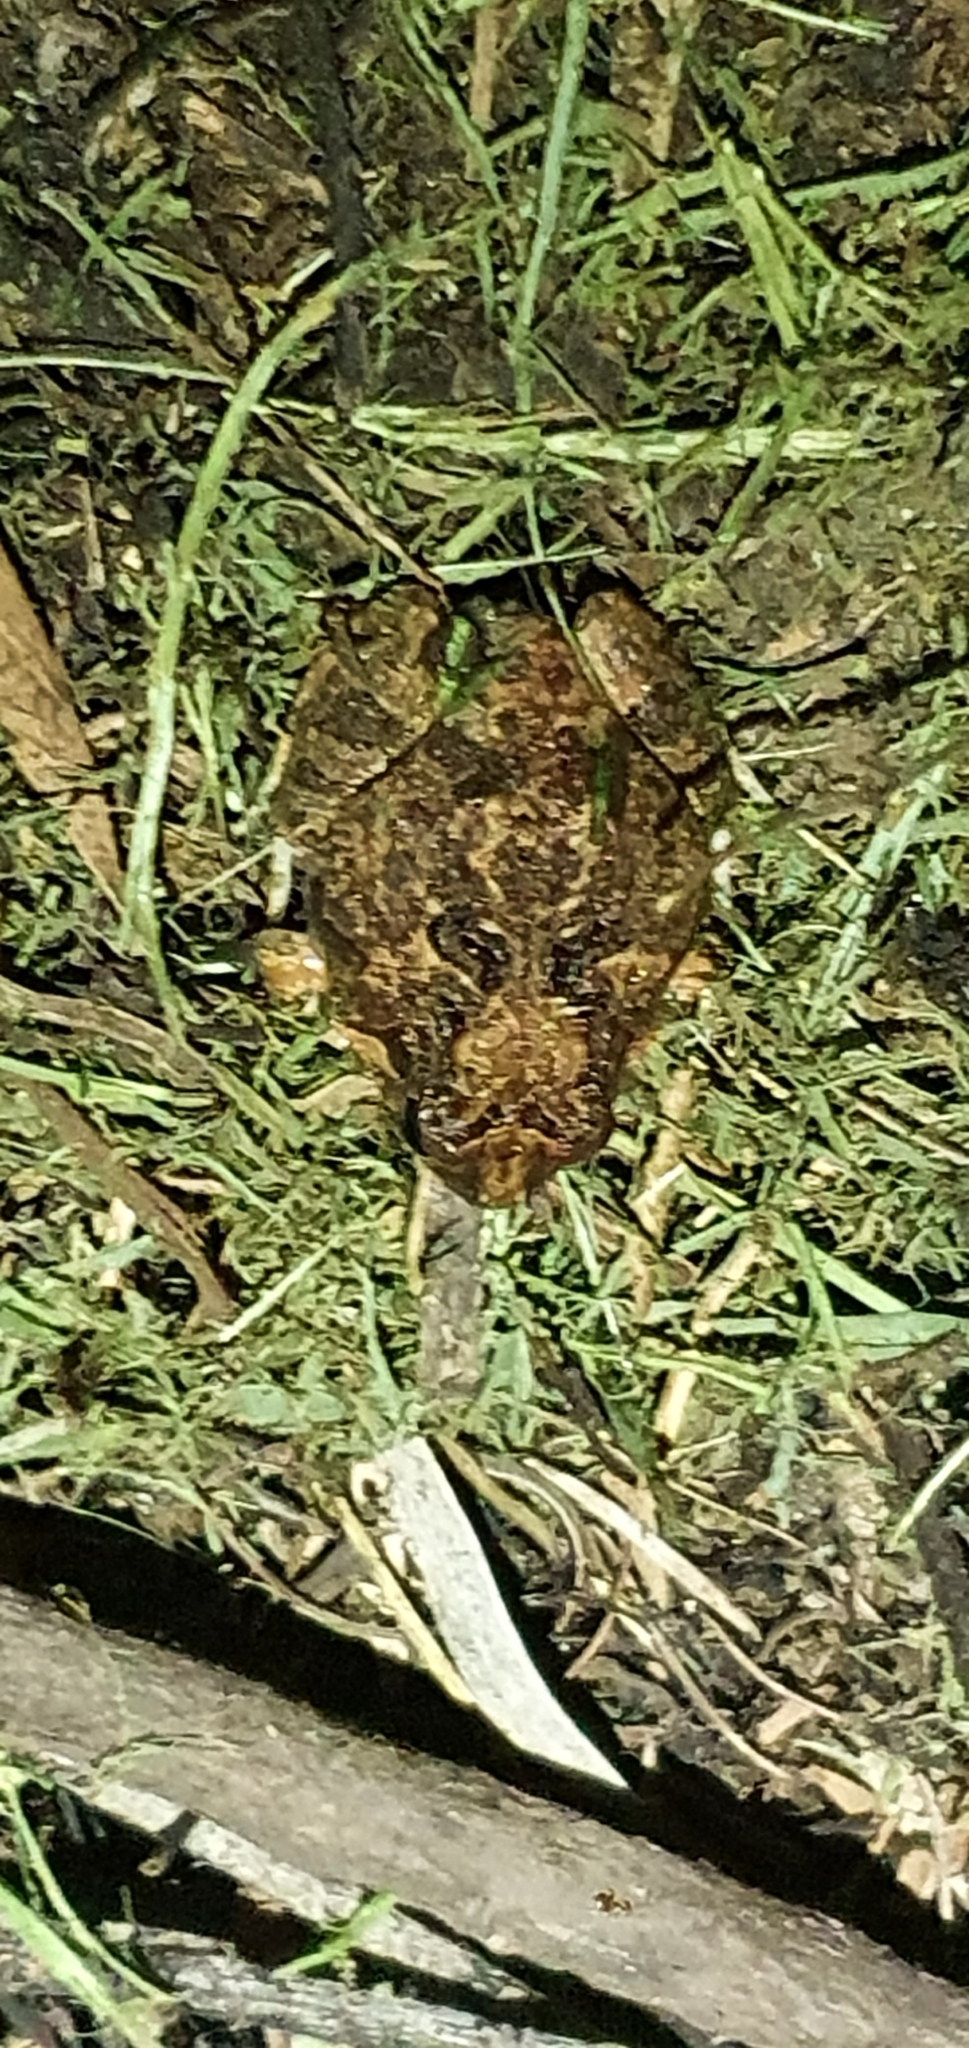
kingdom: Animalia
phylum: Chordata
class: Amphibia
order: Anura
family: Limnodynastidae
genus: Platyplectrum
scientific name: Platyplectrum ornatum
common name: Ornate burrowing frog
